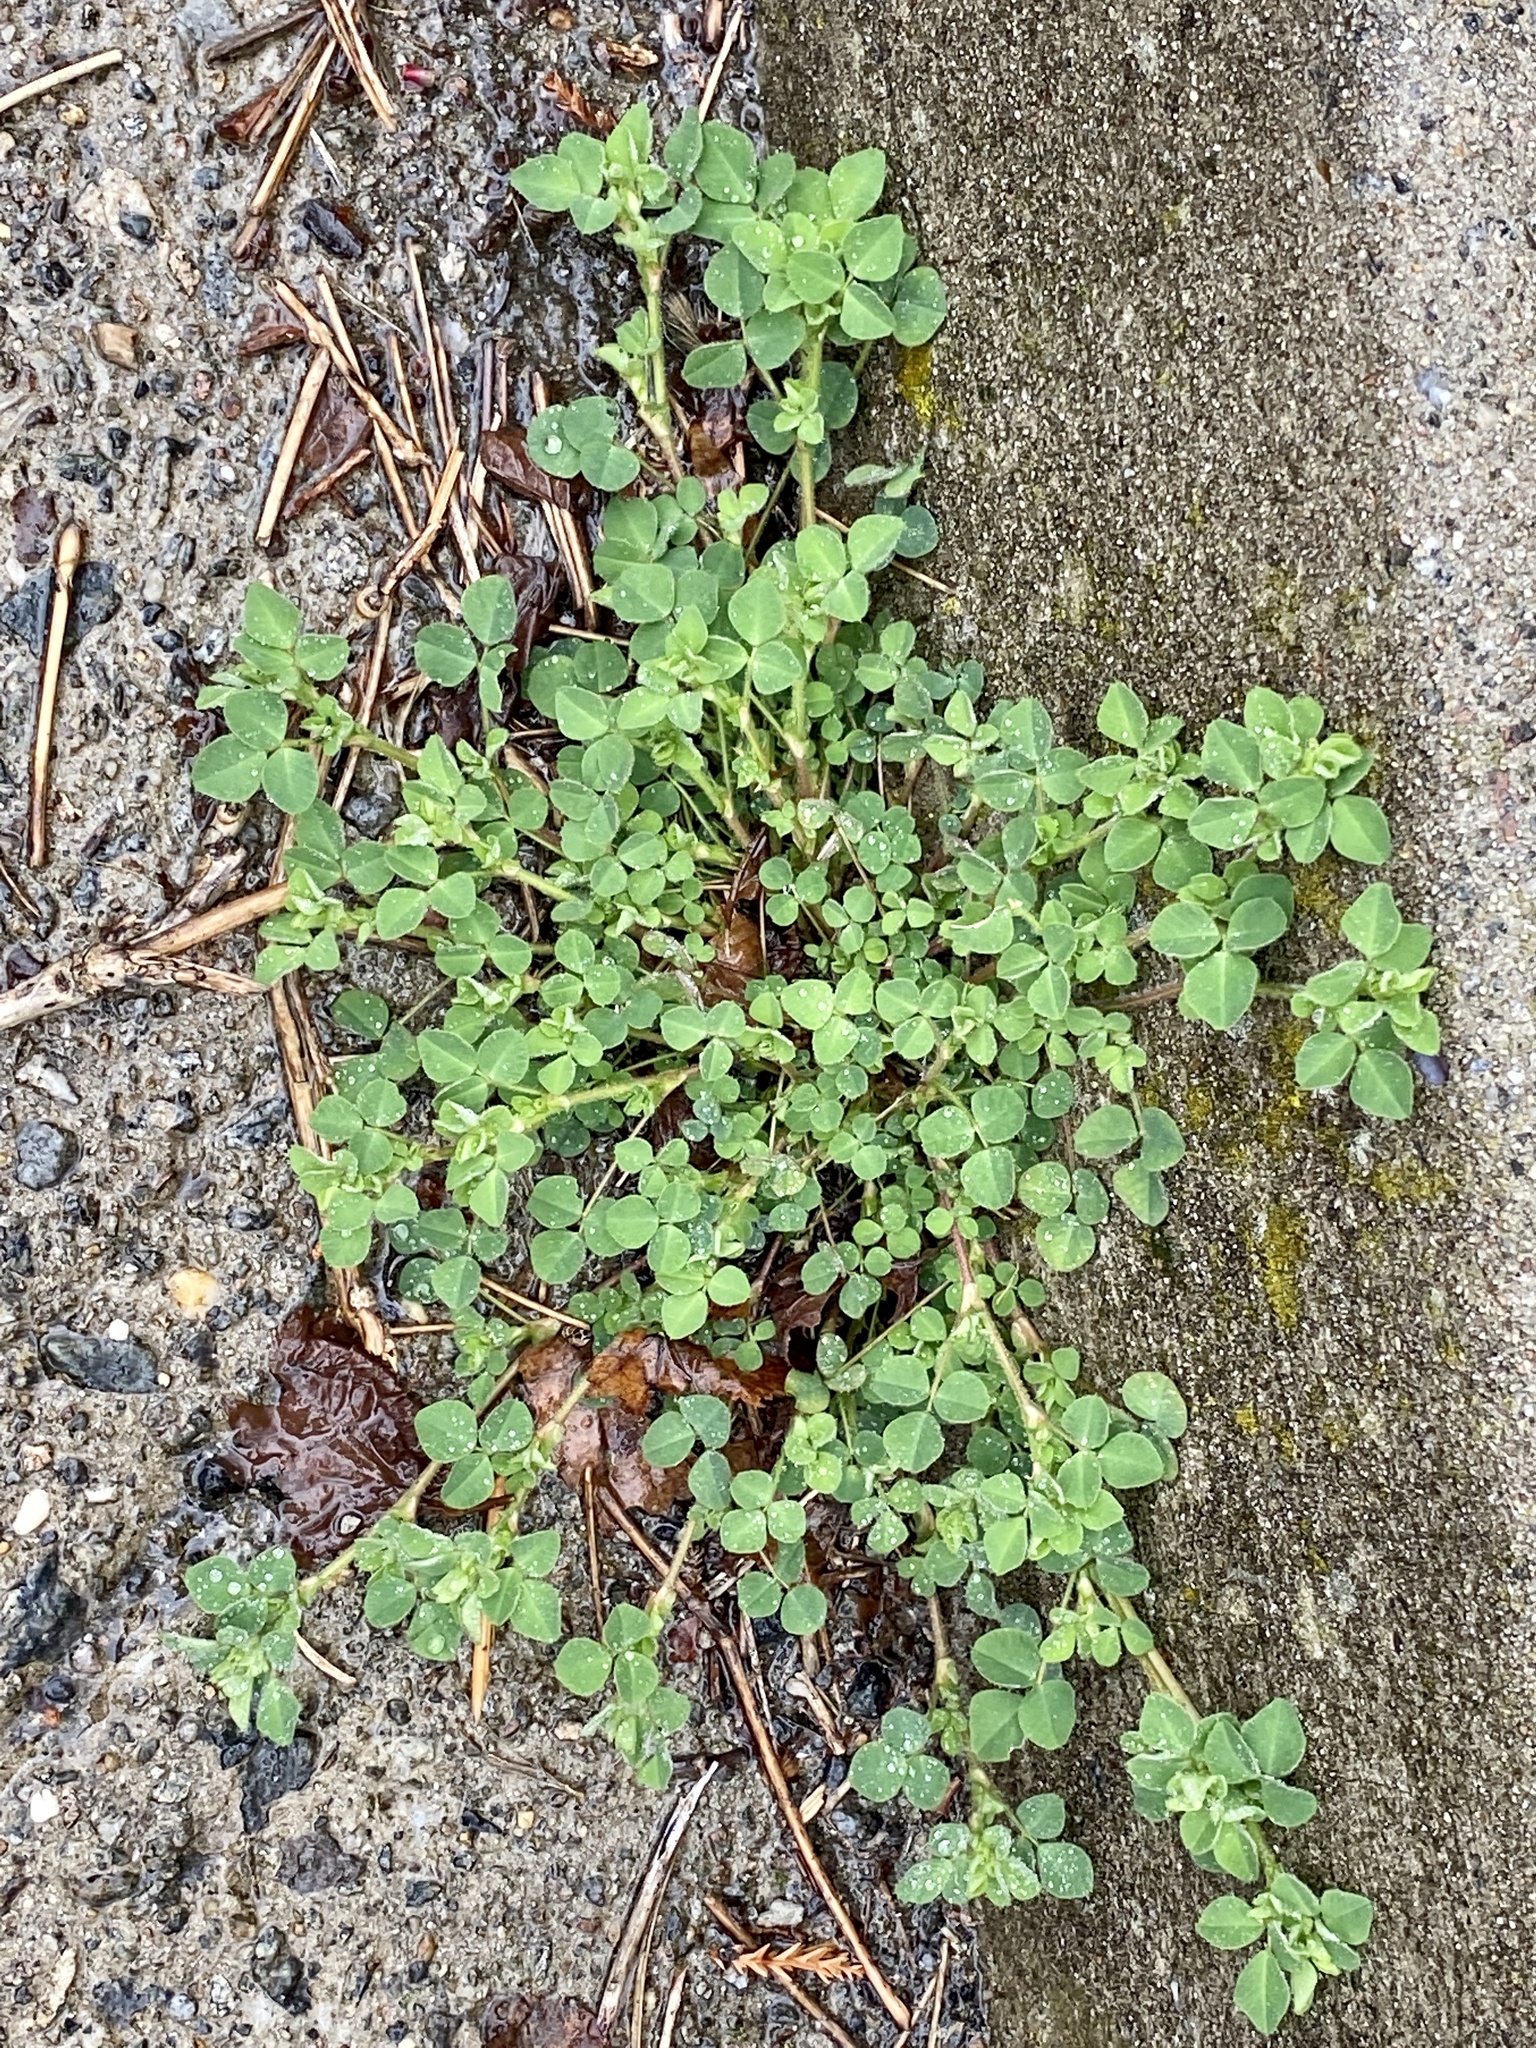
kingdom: Plantae
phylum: Tracheophyta
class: Magnoliopsida
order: Fabales
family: Fabaceae
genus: Medicago
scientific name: Medicago lupulina
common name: Black medick
